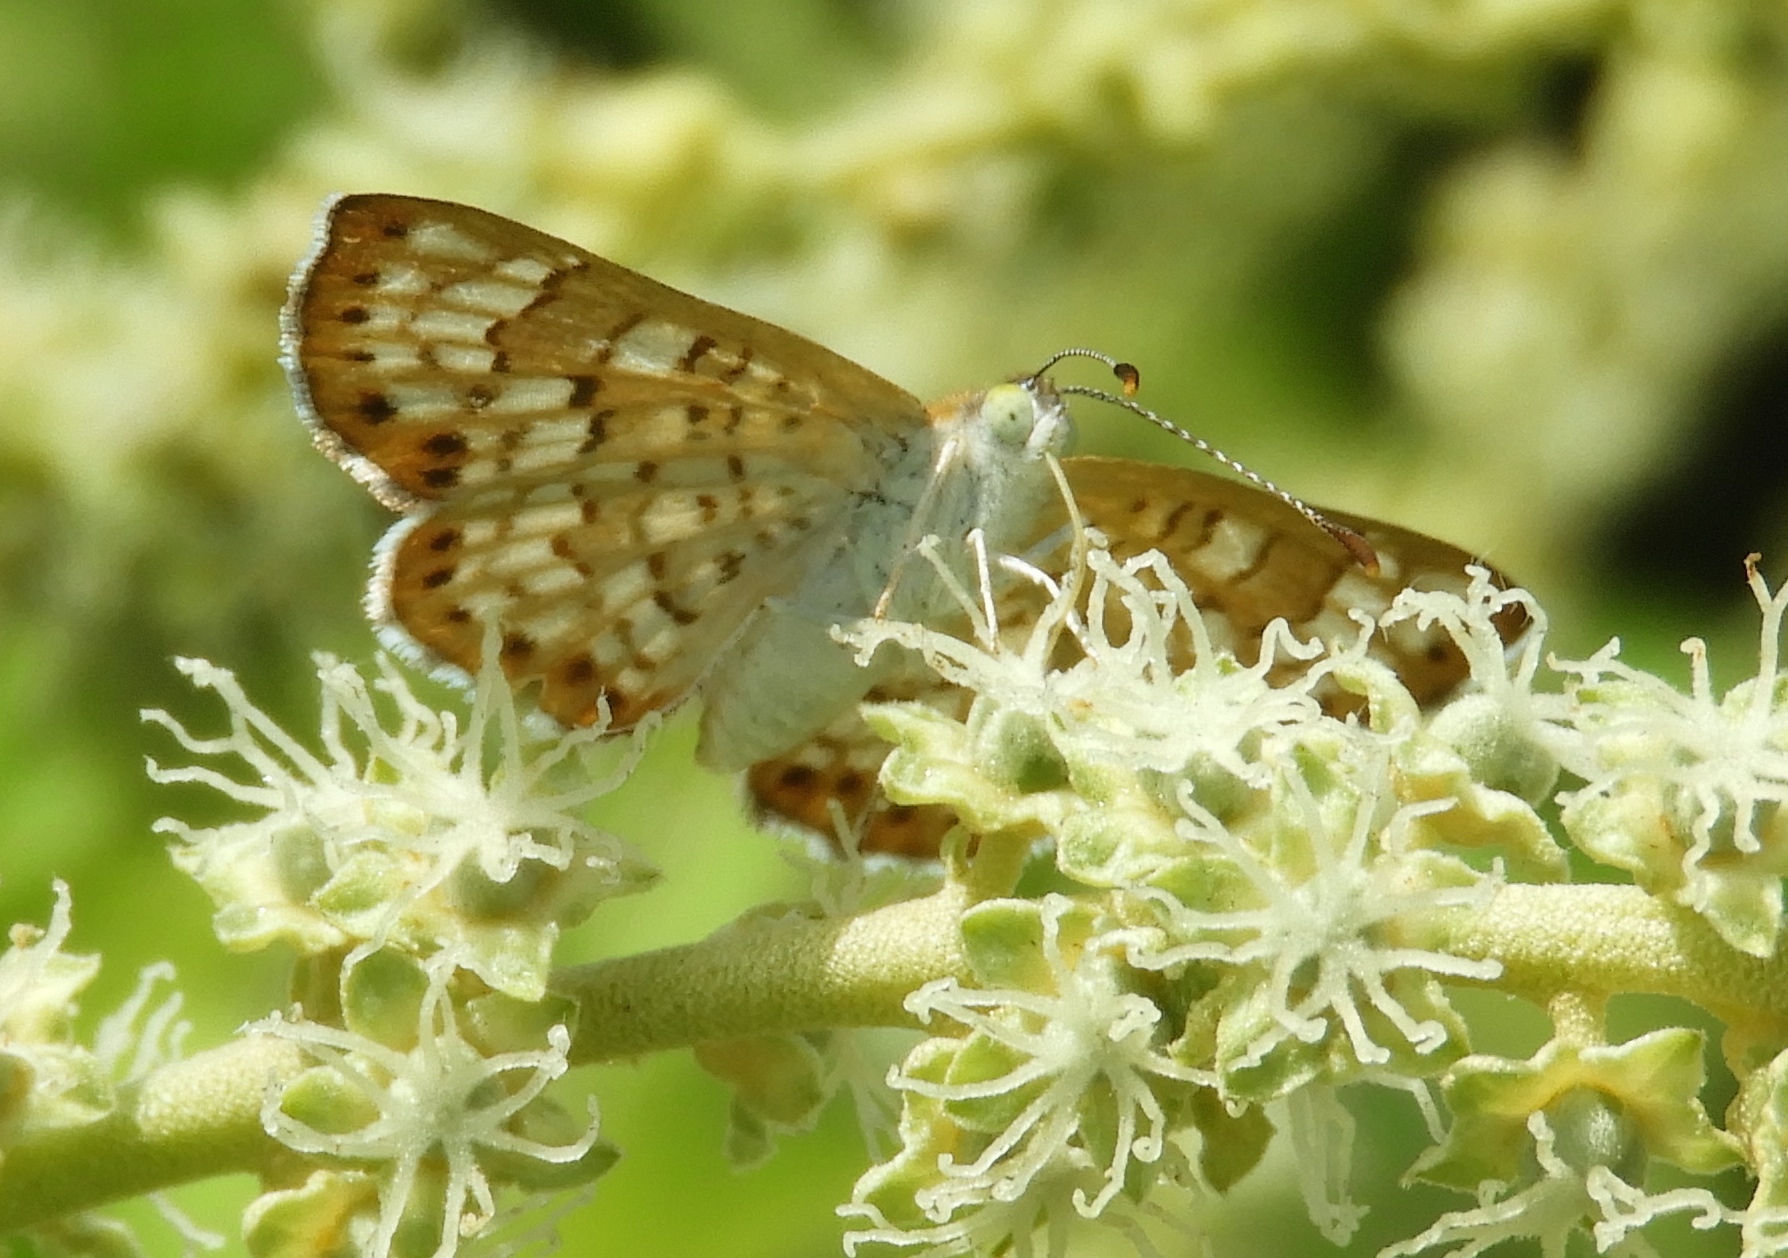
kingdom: Animalia
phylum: Arthropoda
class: Insecta
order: Lepidoptera
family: Riodinidae
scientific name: Riodinidae
